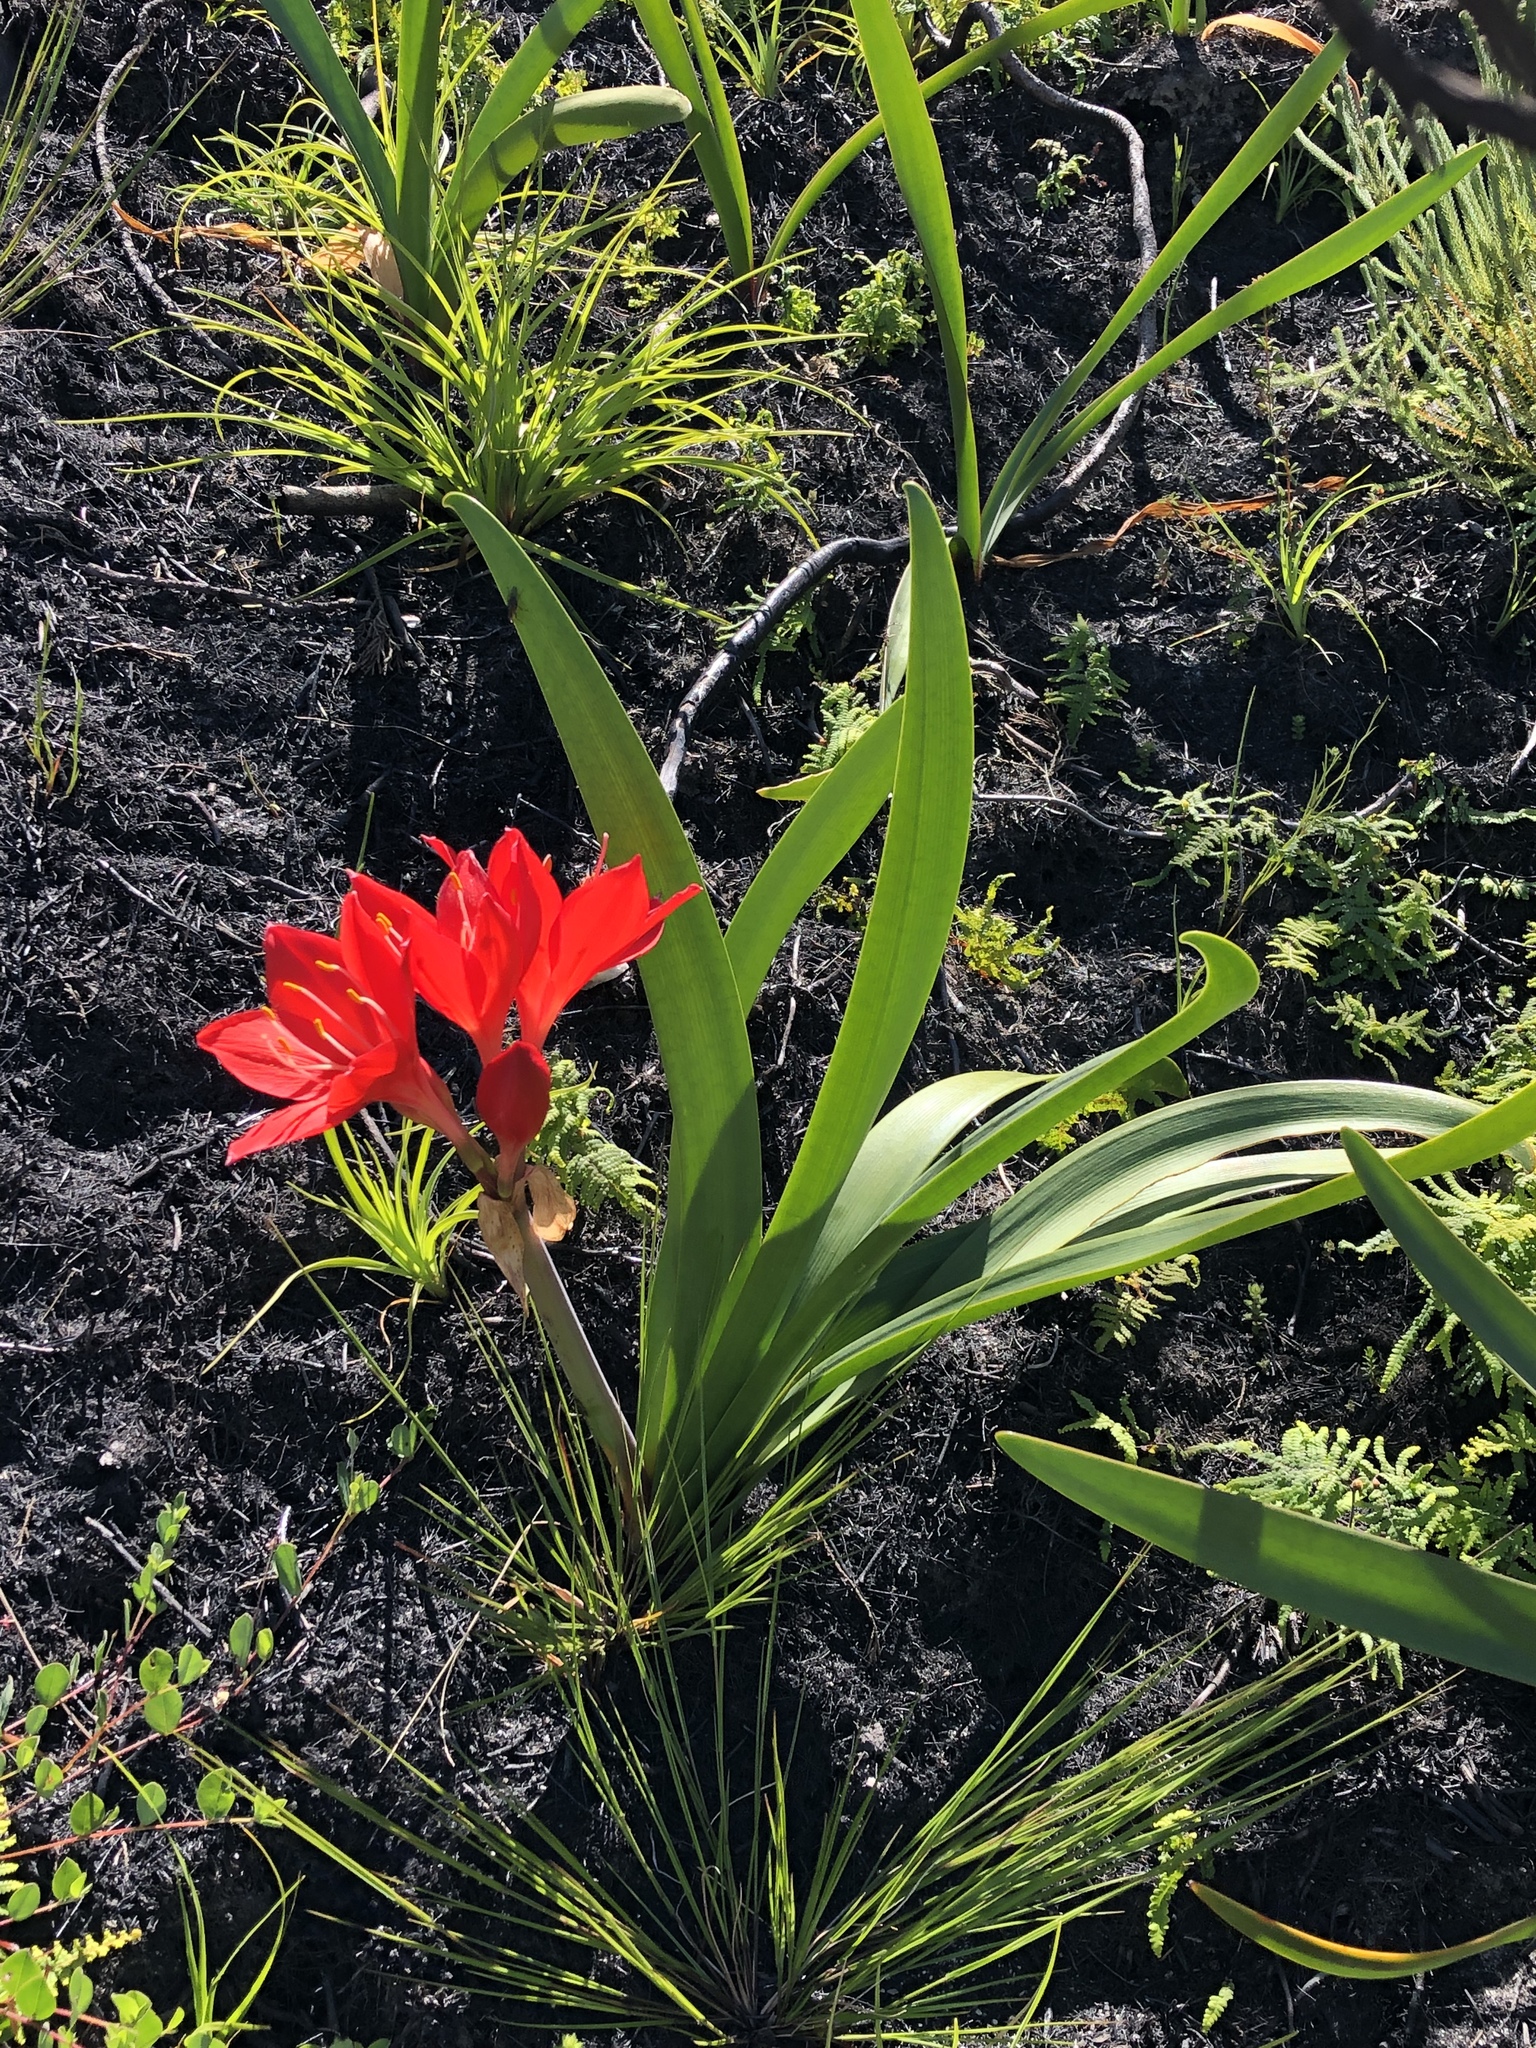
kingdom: Plantae
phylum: Tracheophyta
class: Liliopsida
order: Asparagales
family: Amaryllidaceae
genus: Cyrtanthus
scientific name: Cyrtanthus elatus
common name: Scarborough-lily
